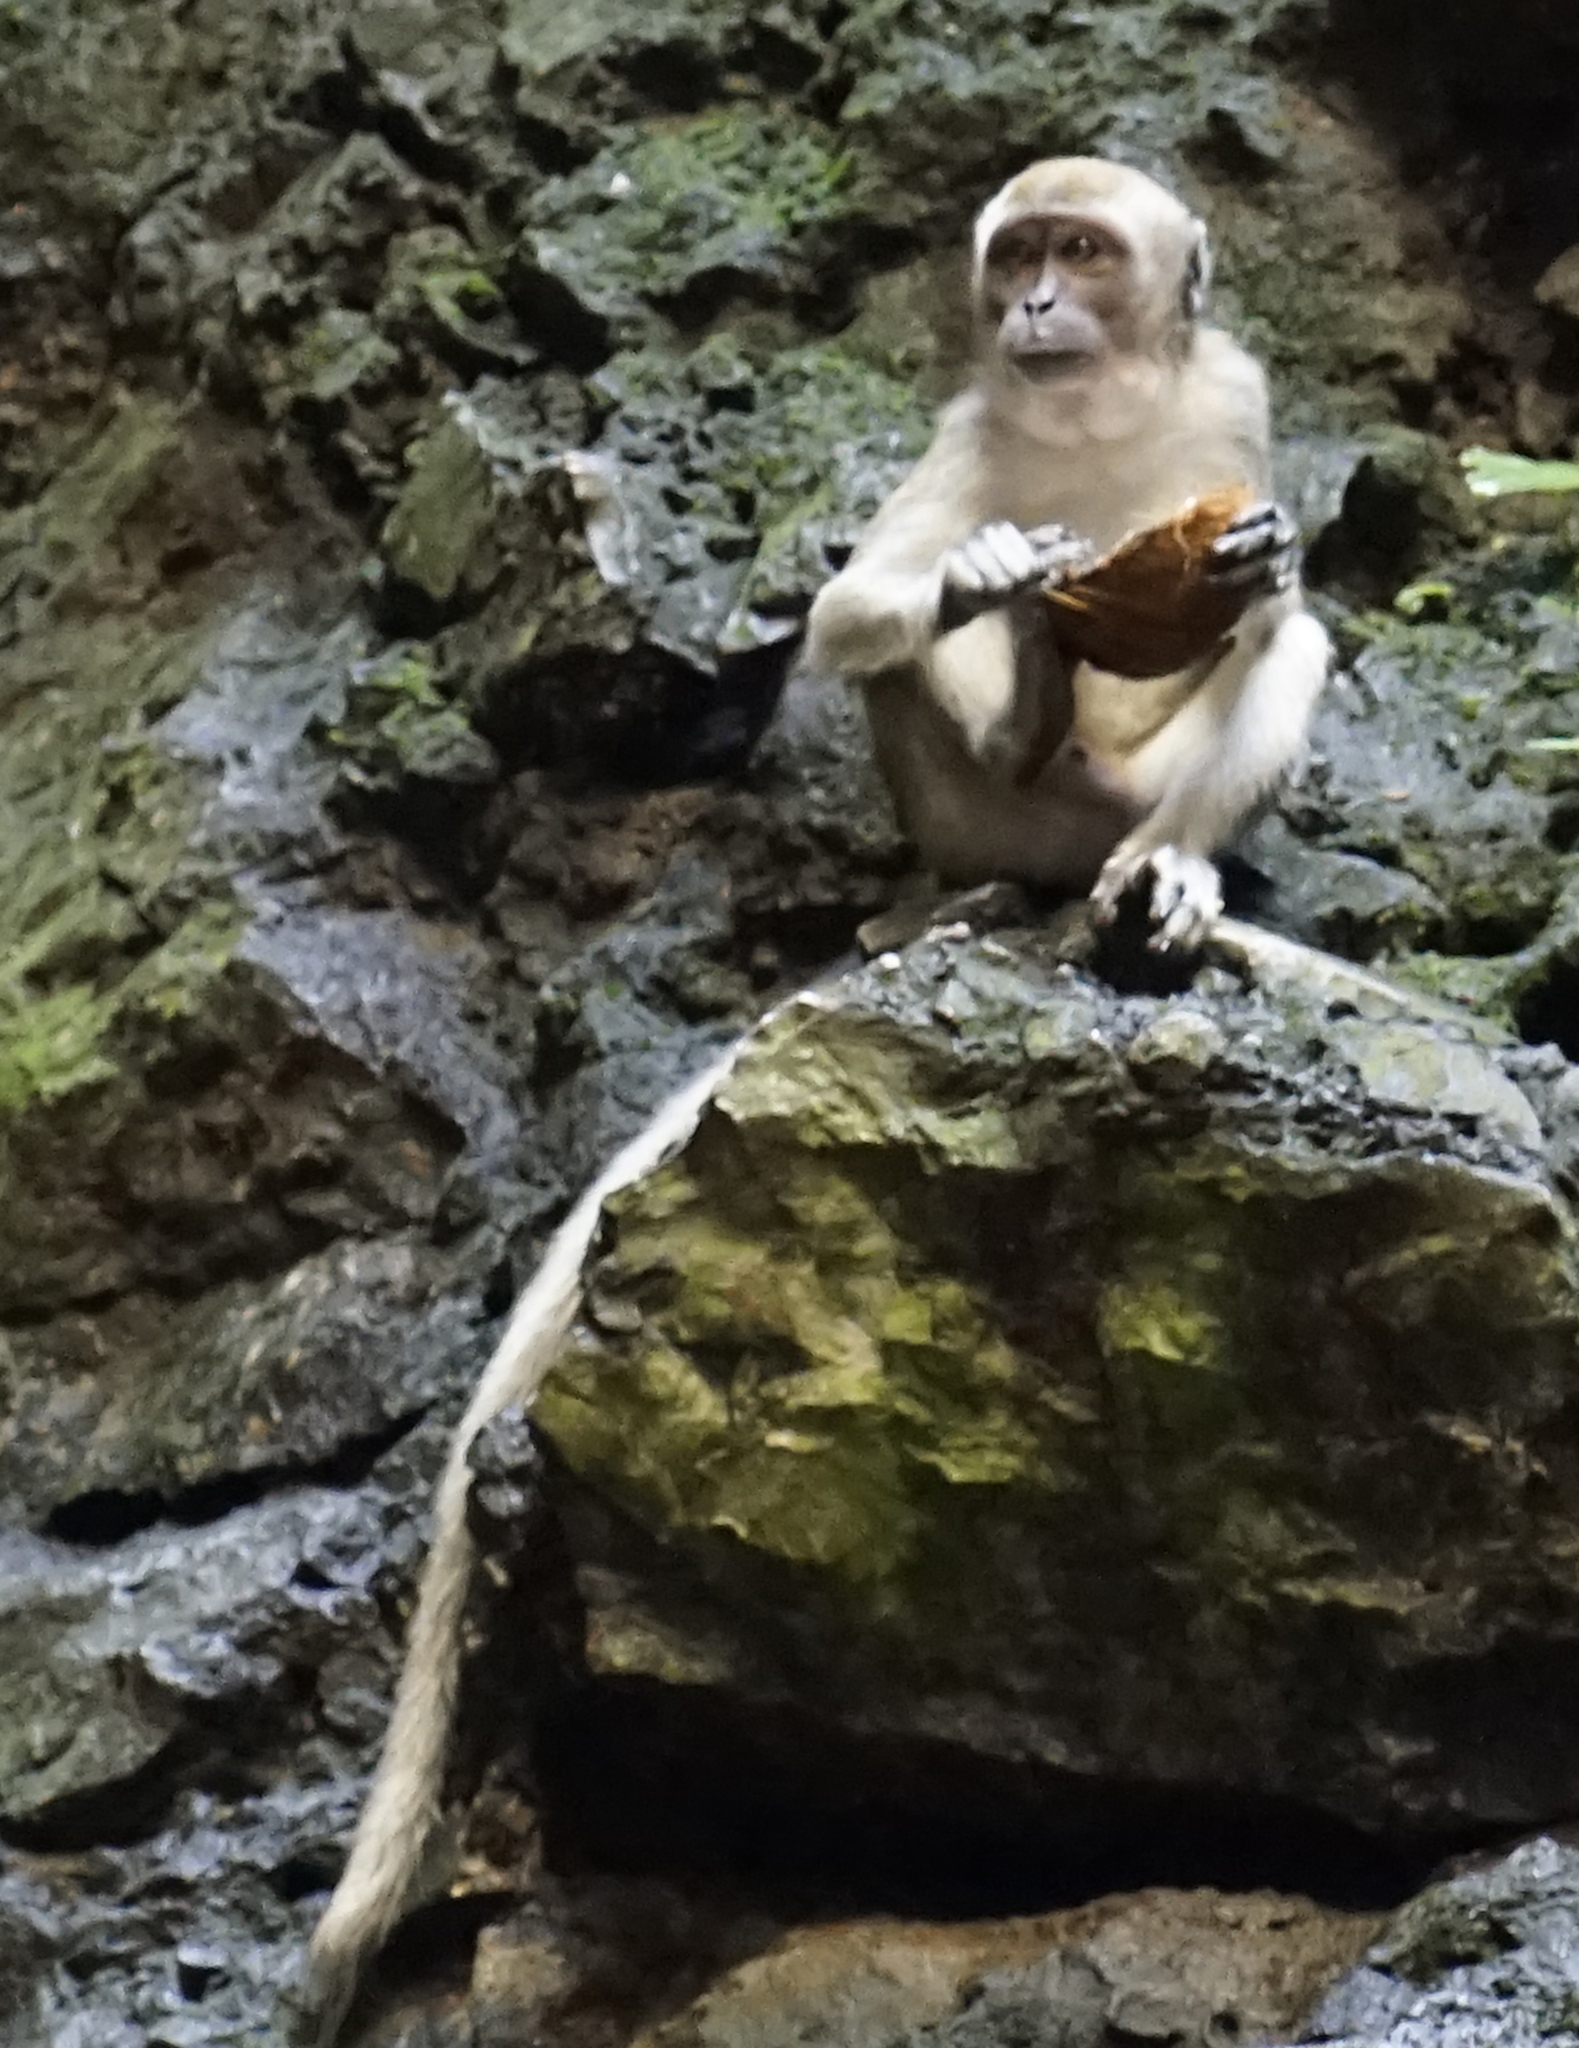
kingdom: Animalia
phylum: Chordata
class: Mammalia
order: Primates
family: Cercopithecidae
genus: Macaca
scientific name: Macaca fascicularis
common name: Crab-eating macaque
